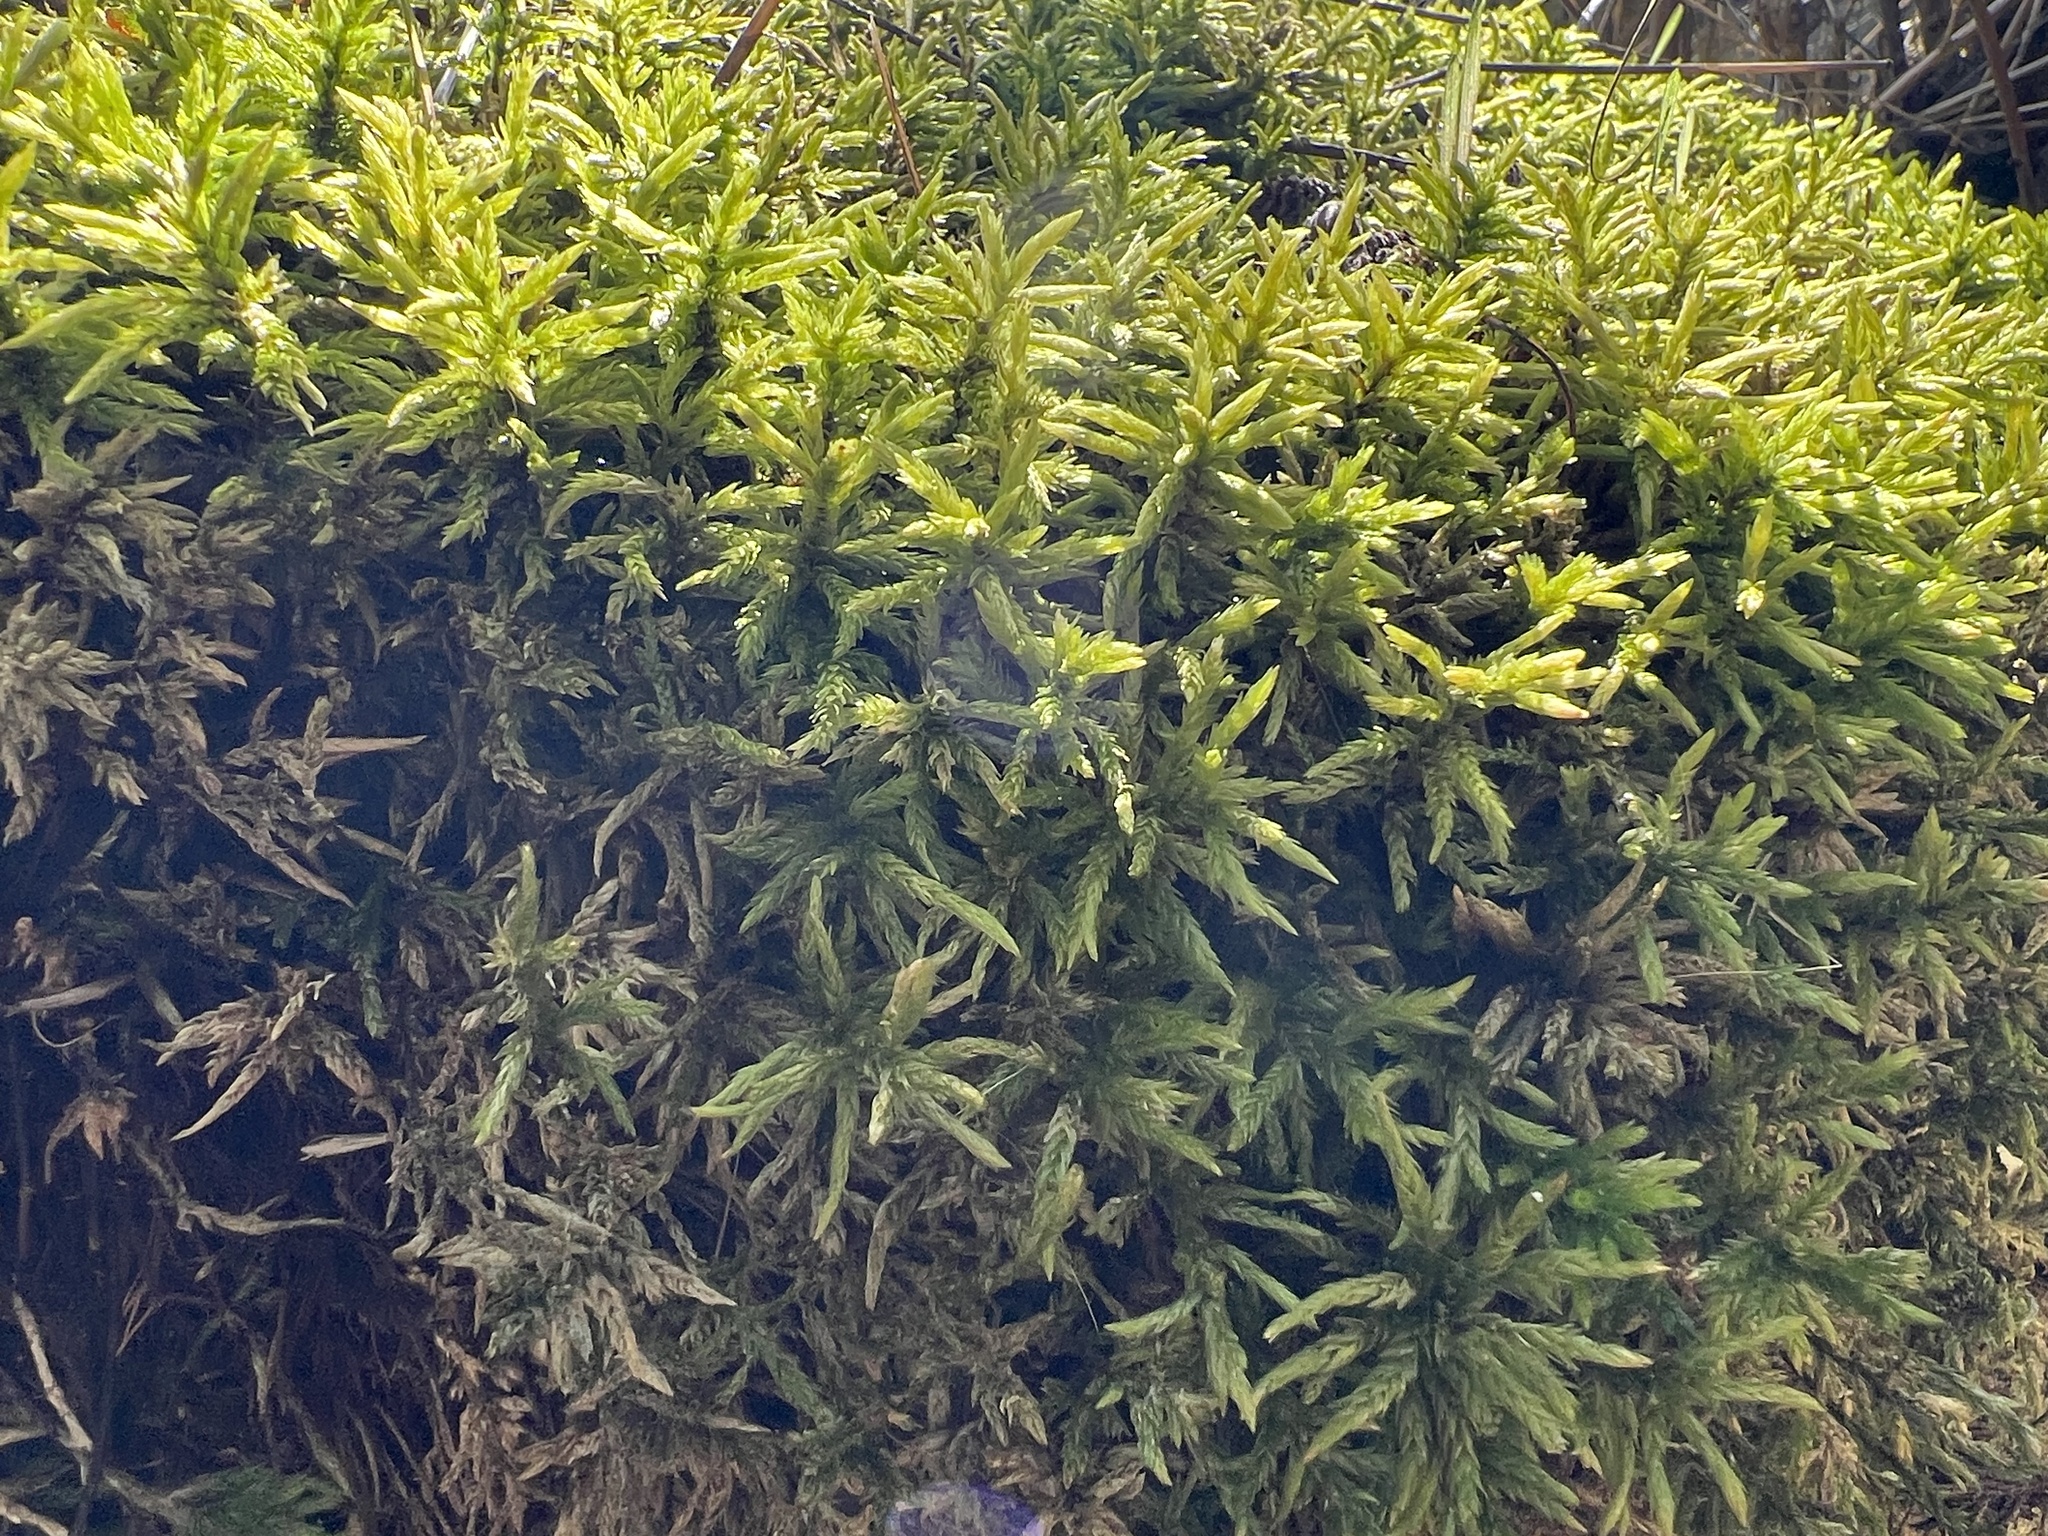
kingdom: Plantae
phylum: Bryophyta
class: Bryopsida
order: Hypnales
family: Climaciaceae
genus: Climacium
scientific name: Climacium dendroides
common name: Northern tree moss
